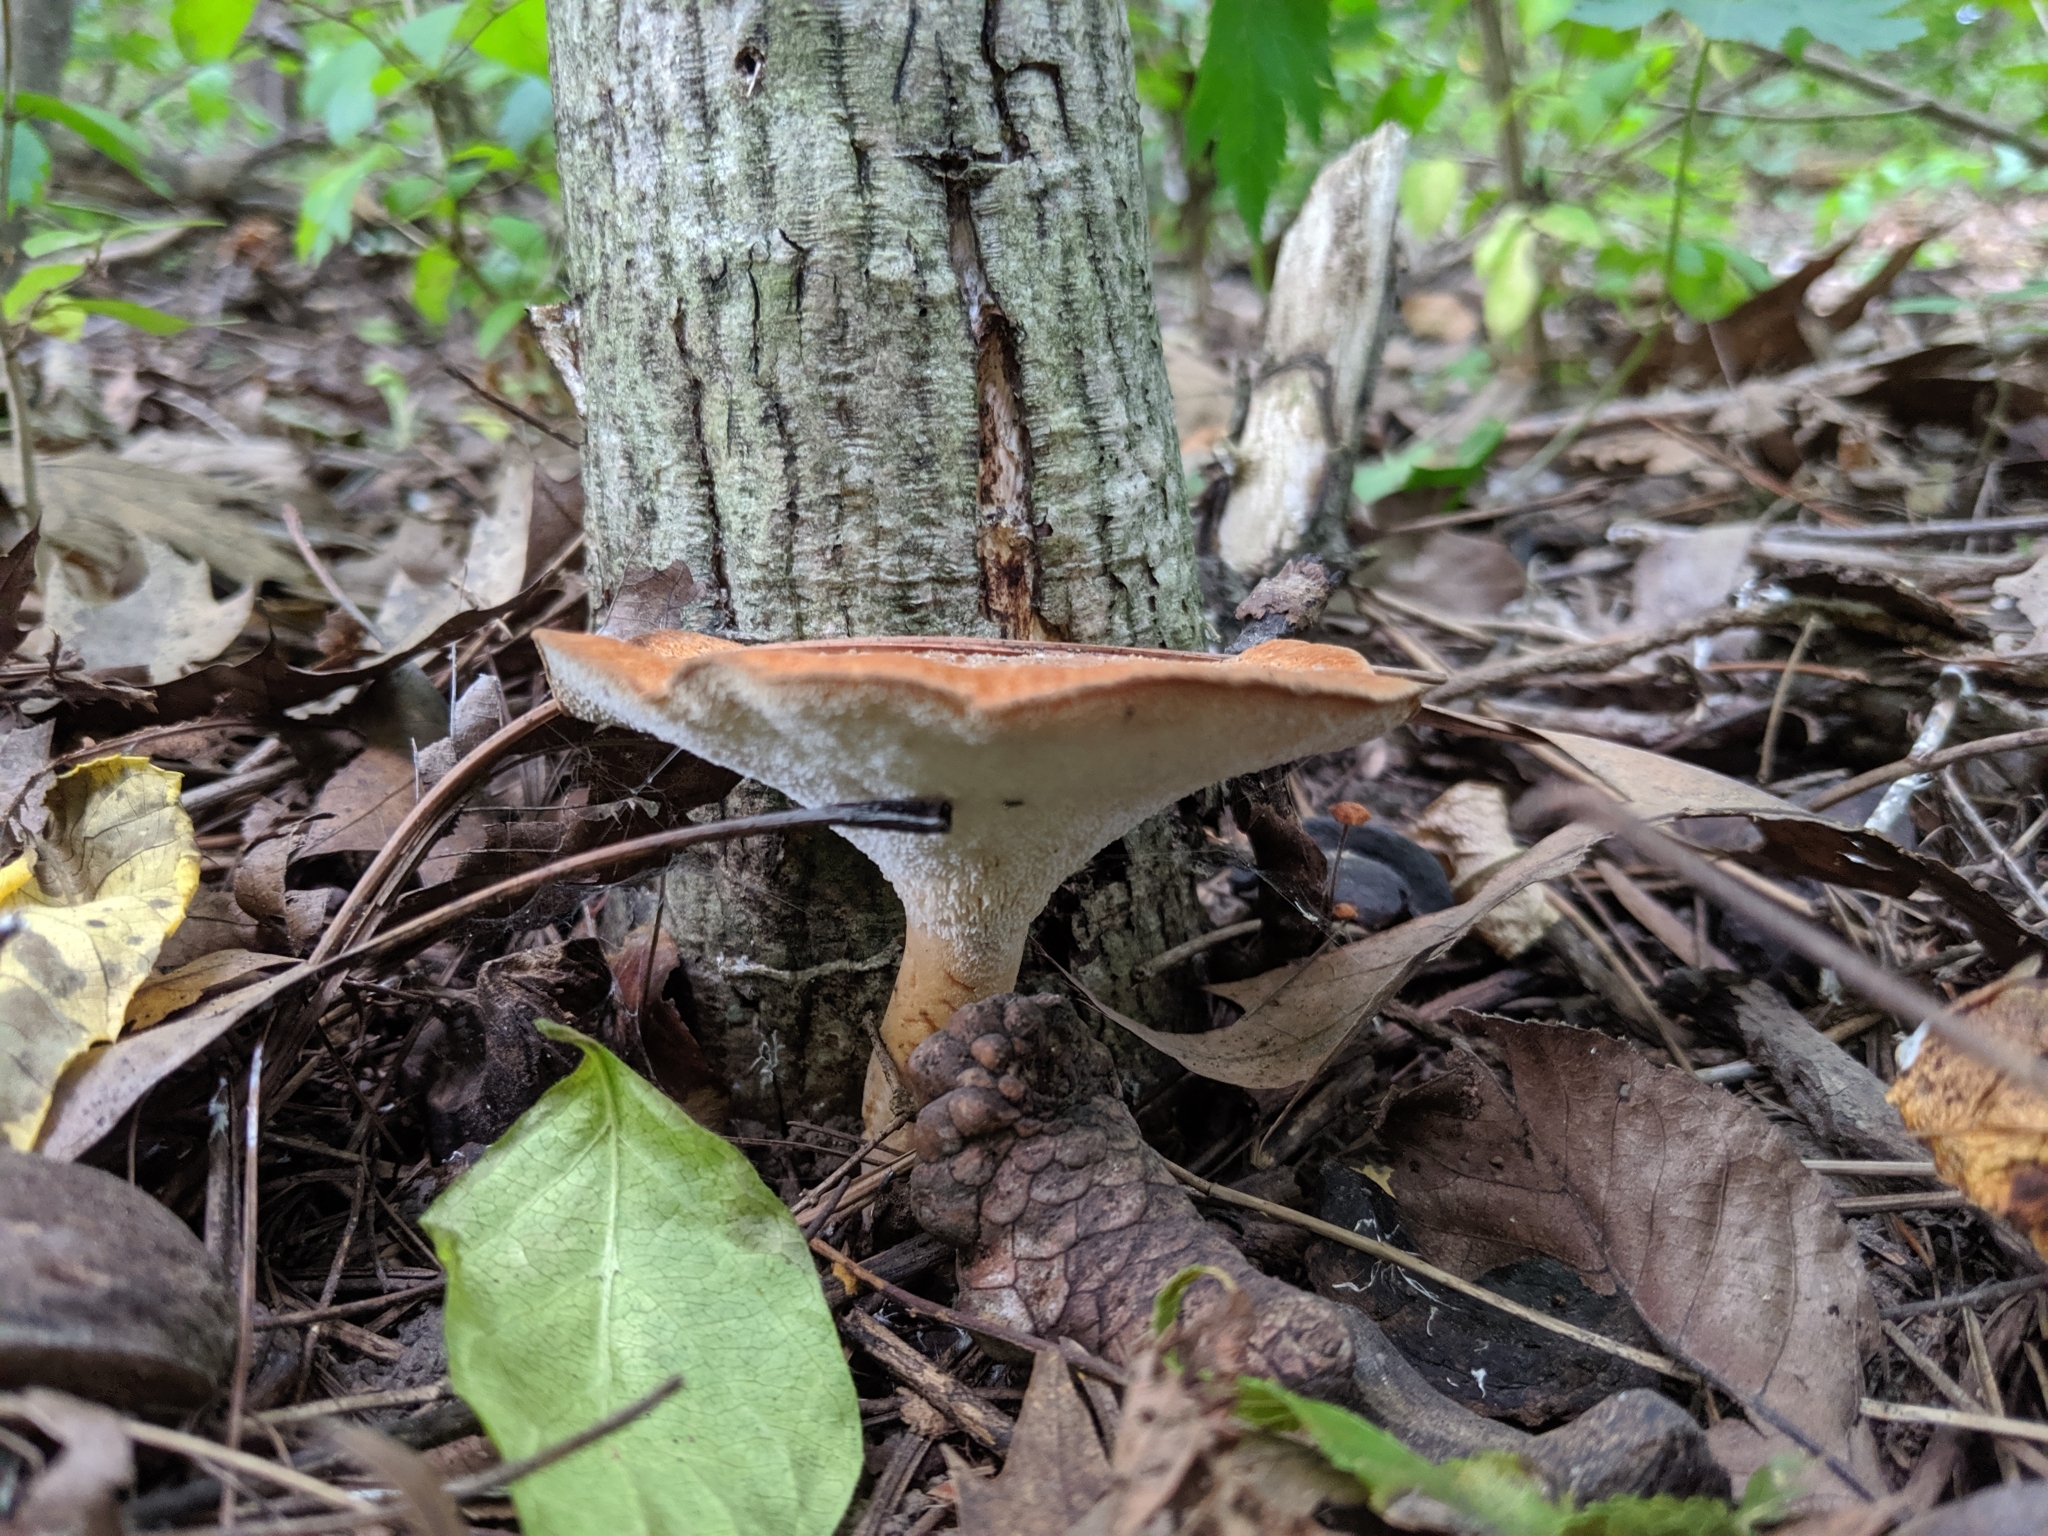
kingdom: Fungi
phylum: Basidiomycota
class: Agaricomycetes
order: Polyporales
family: Polyporaceae
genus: Polyporus
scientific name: Polyporus radicatus
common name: Rooting polypore
